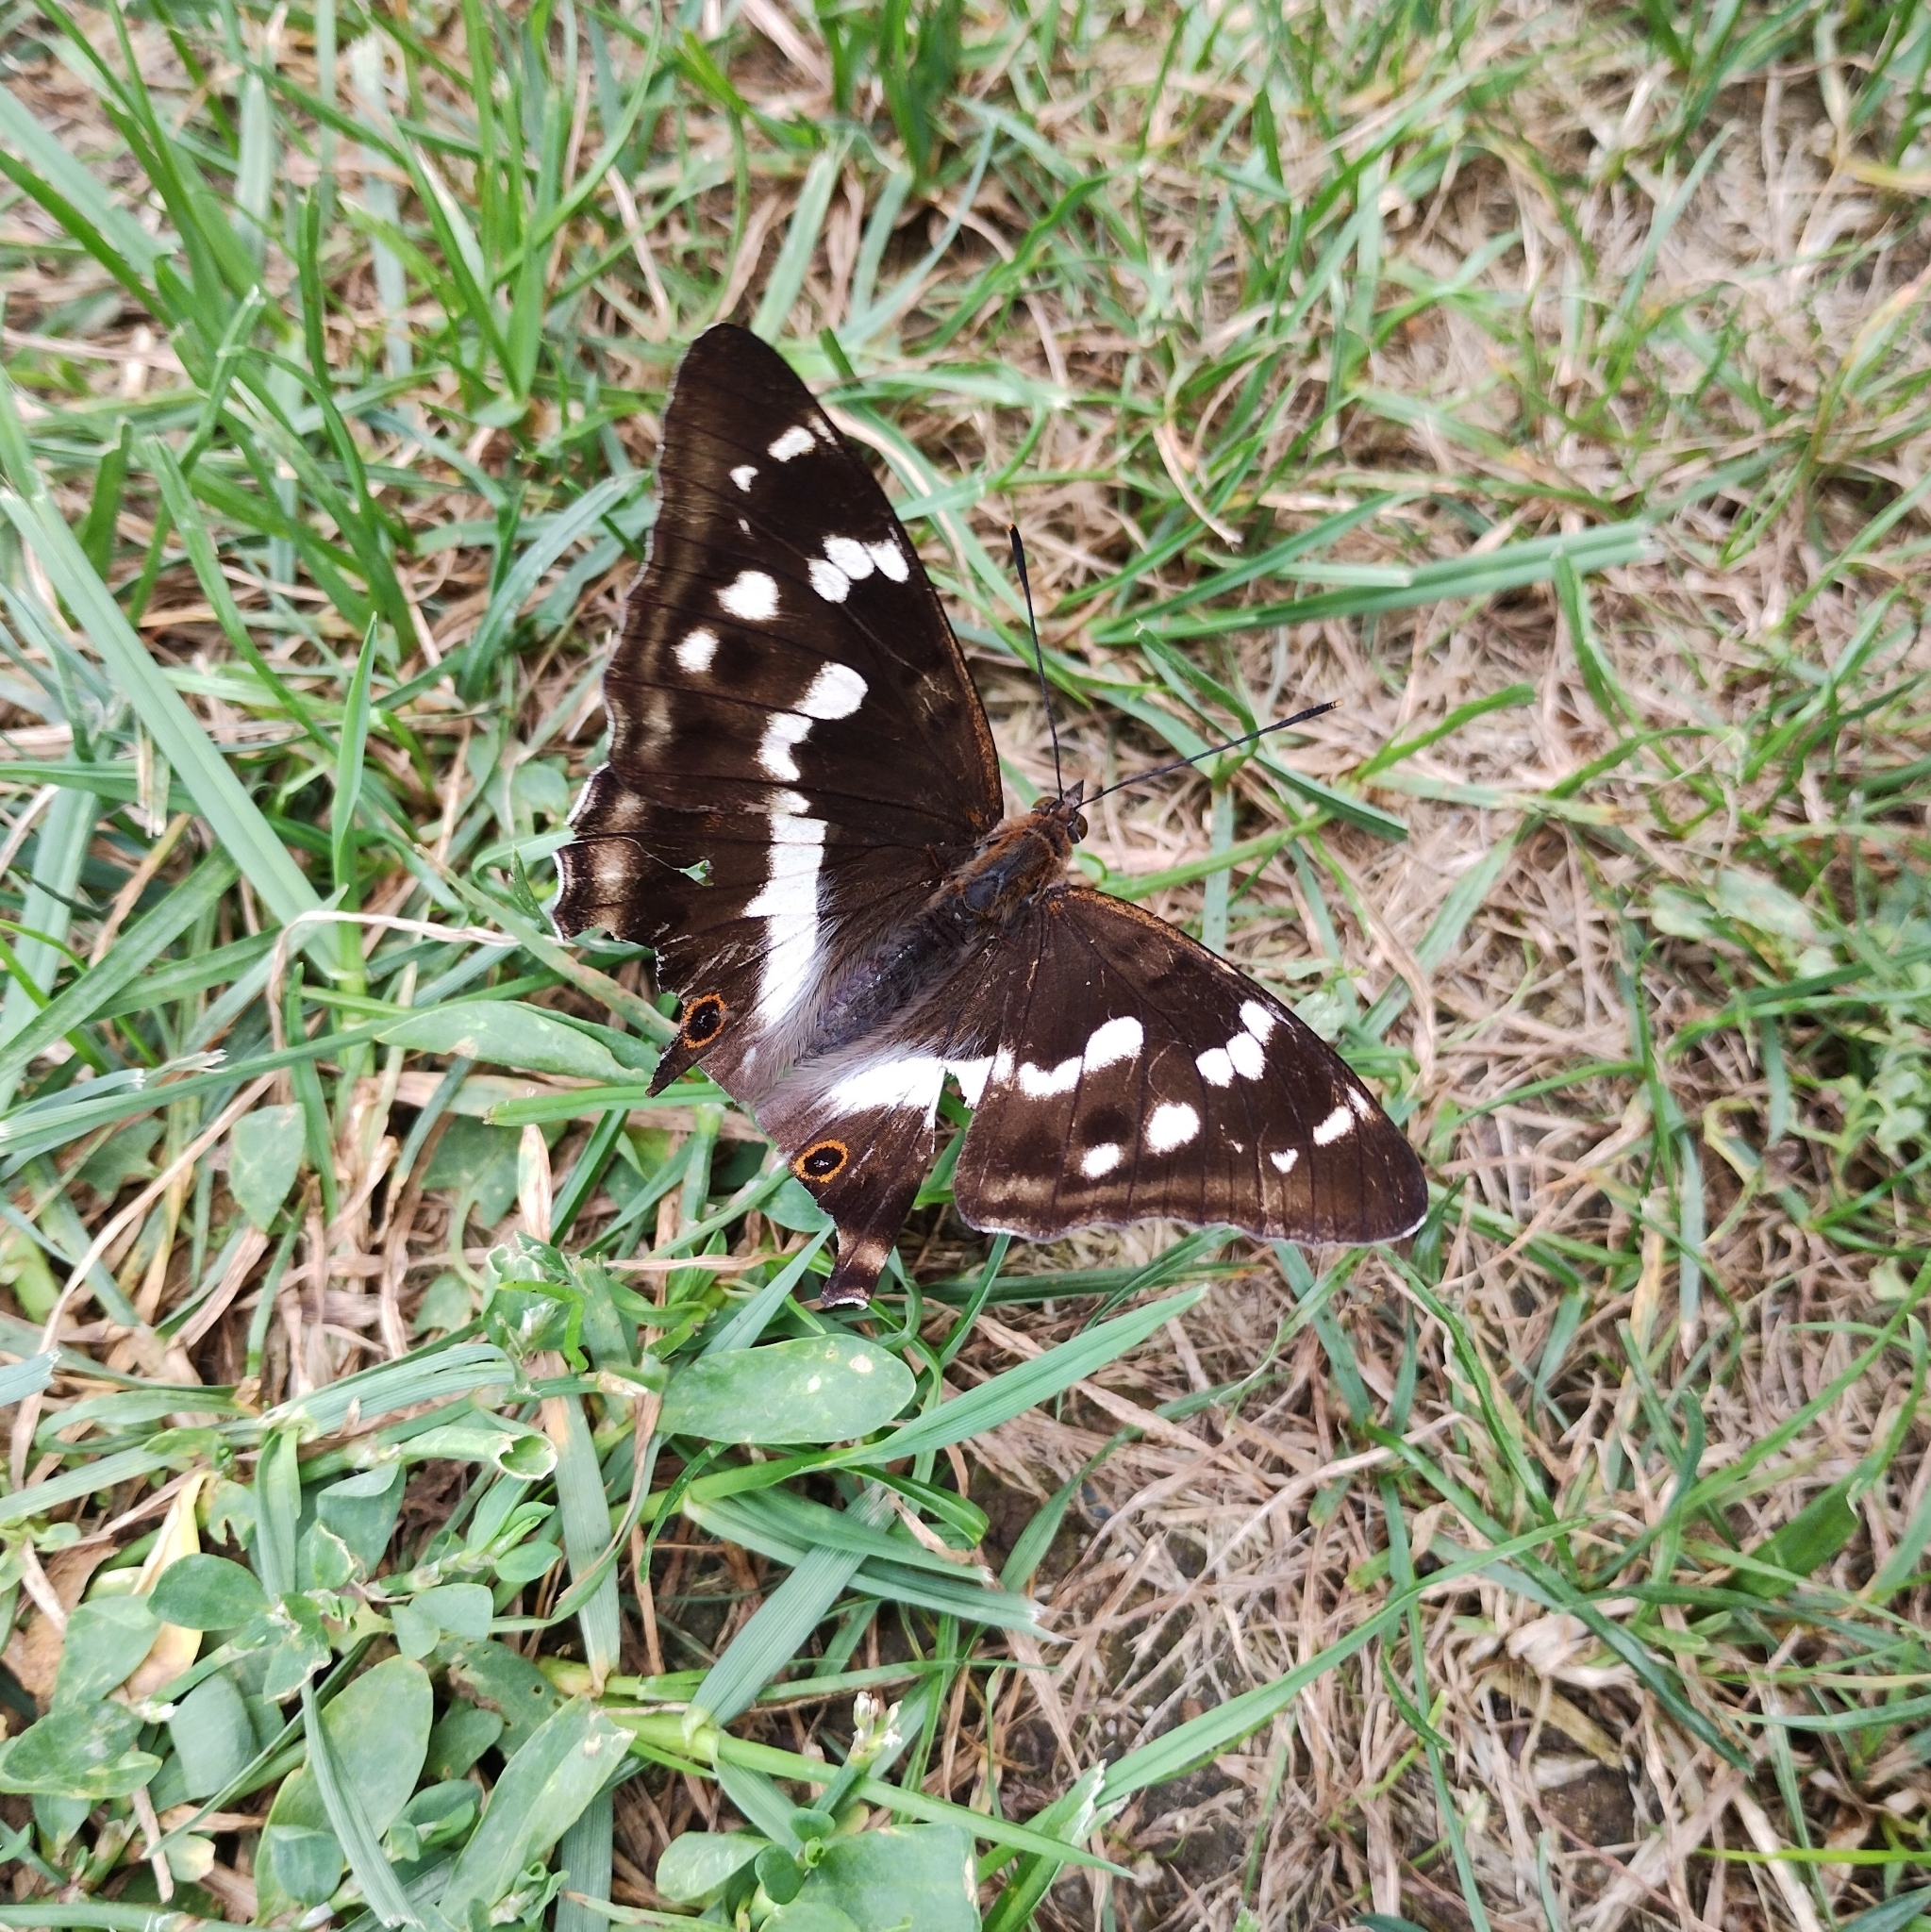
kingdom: Animalia
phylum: Arthropoda
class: Insecta
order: Lepidoptera
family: Nymphalidae
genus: Apatura
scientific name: Apatura iris
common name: Purple emperor
